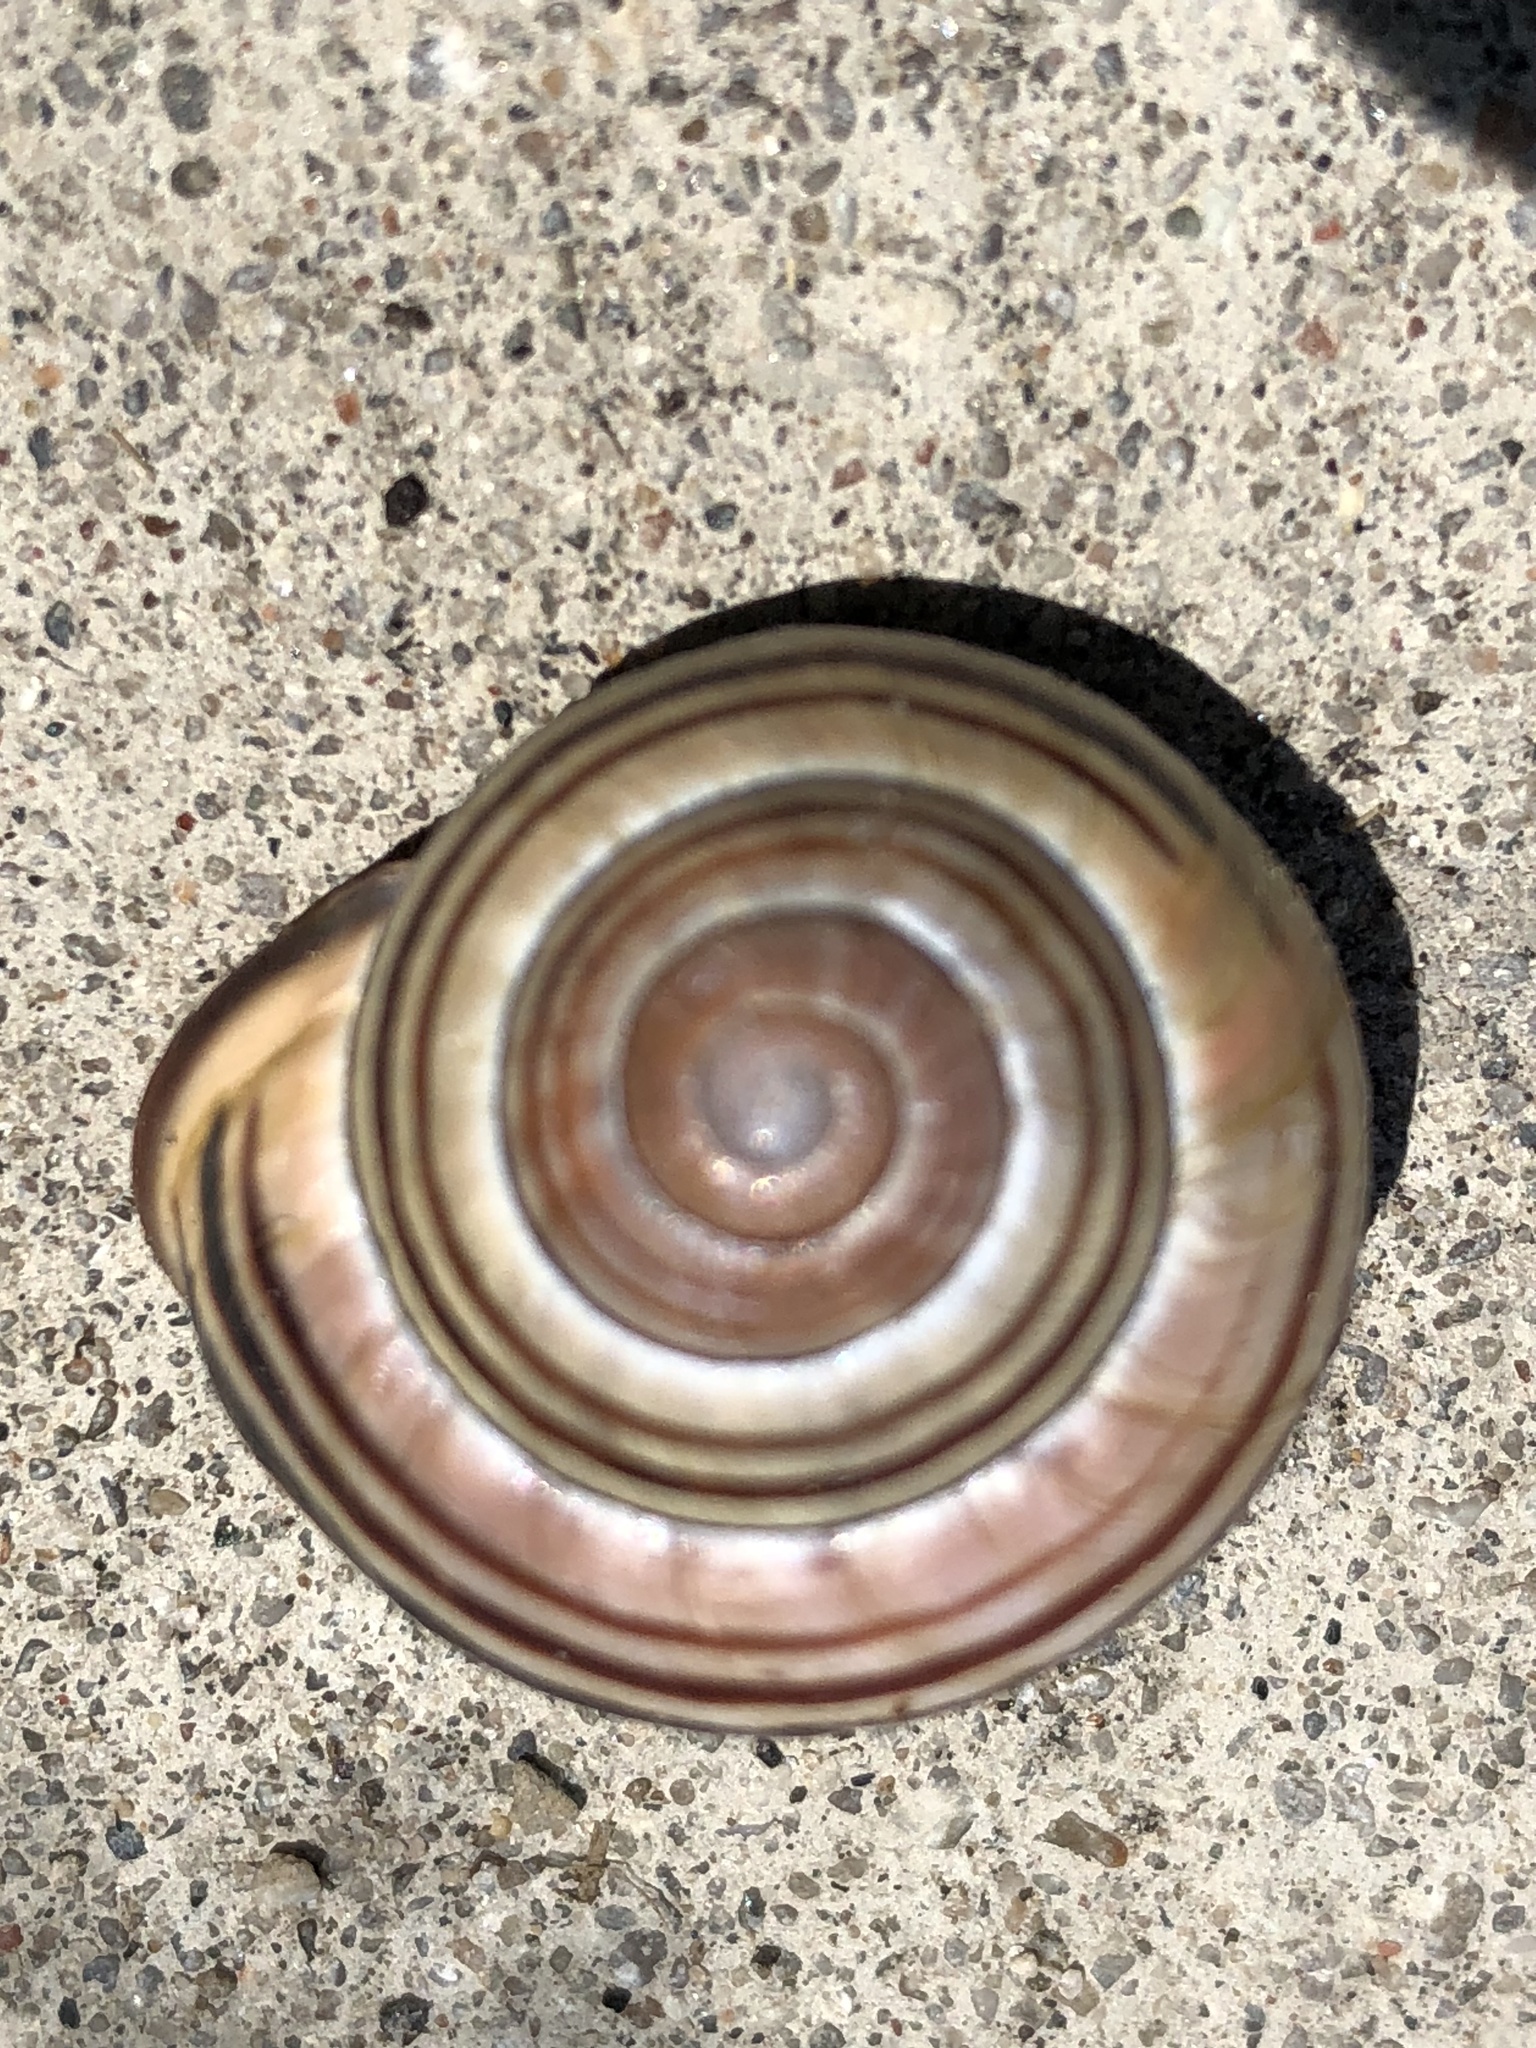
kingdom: Animalia
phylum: Mollusca
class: Gastropoda
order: Stylommatophora
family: Helicidae
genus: Cepaea
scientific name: Cepaea nemoralis
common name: Grovesnail
